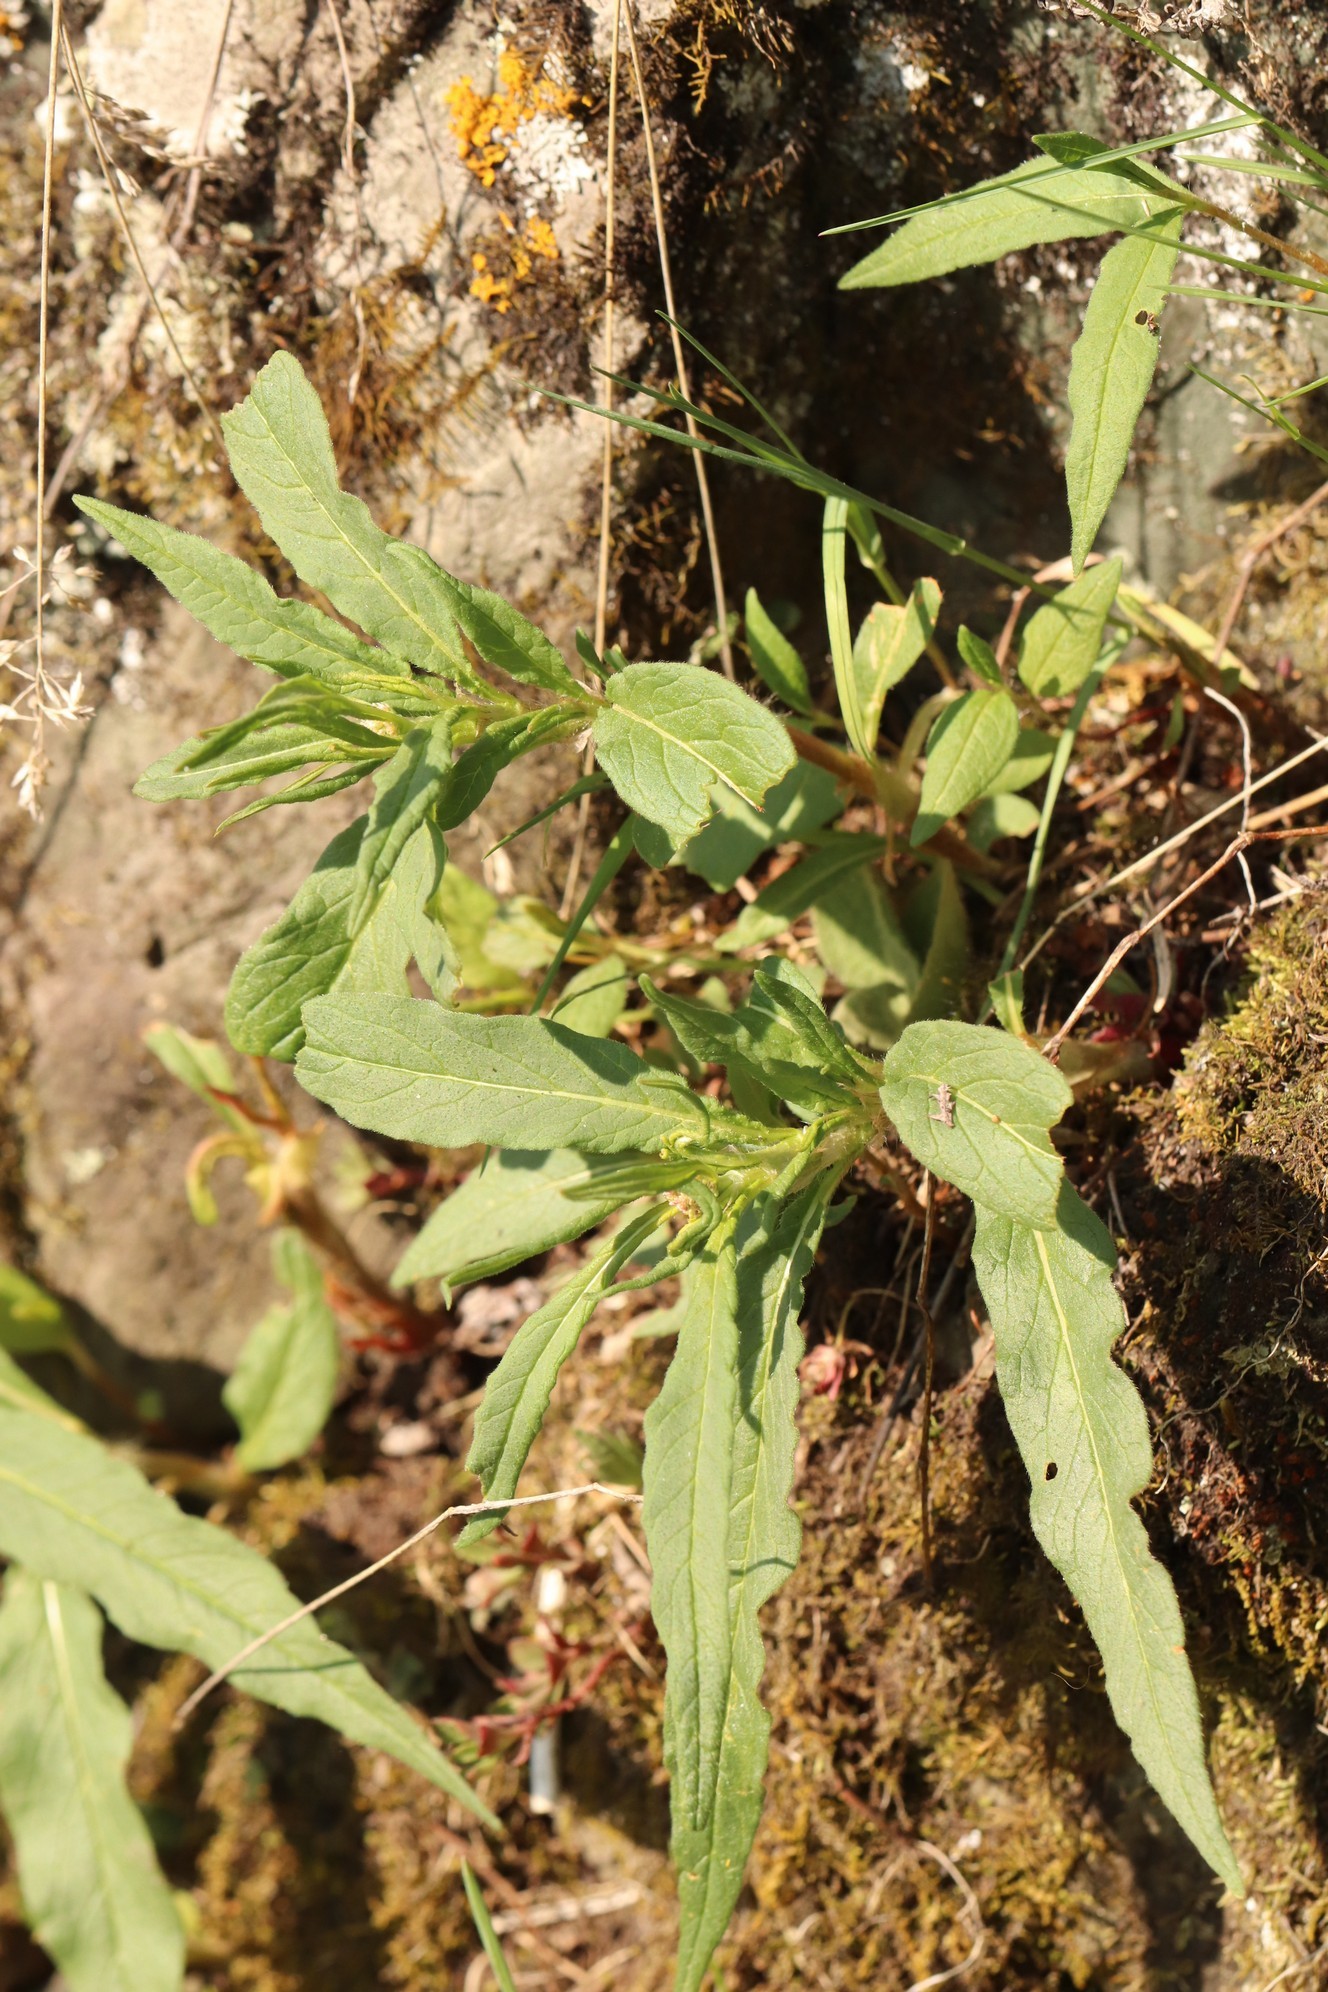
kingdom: Plantae
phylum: Tracheophyta
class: Magnoliopsida
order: Caryophyllales
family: Polygonaceae
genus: Koenigia
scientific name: Koenigia alpina
